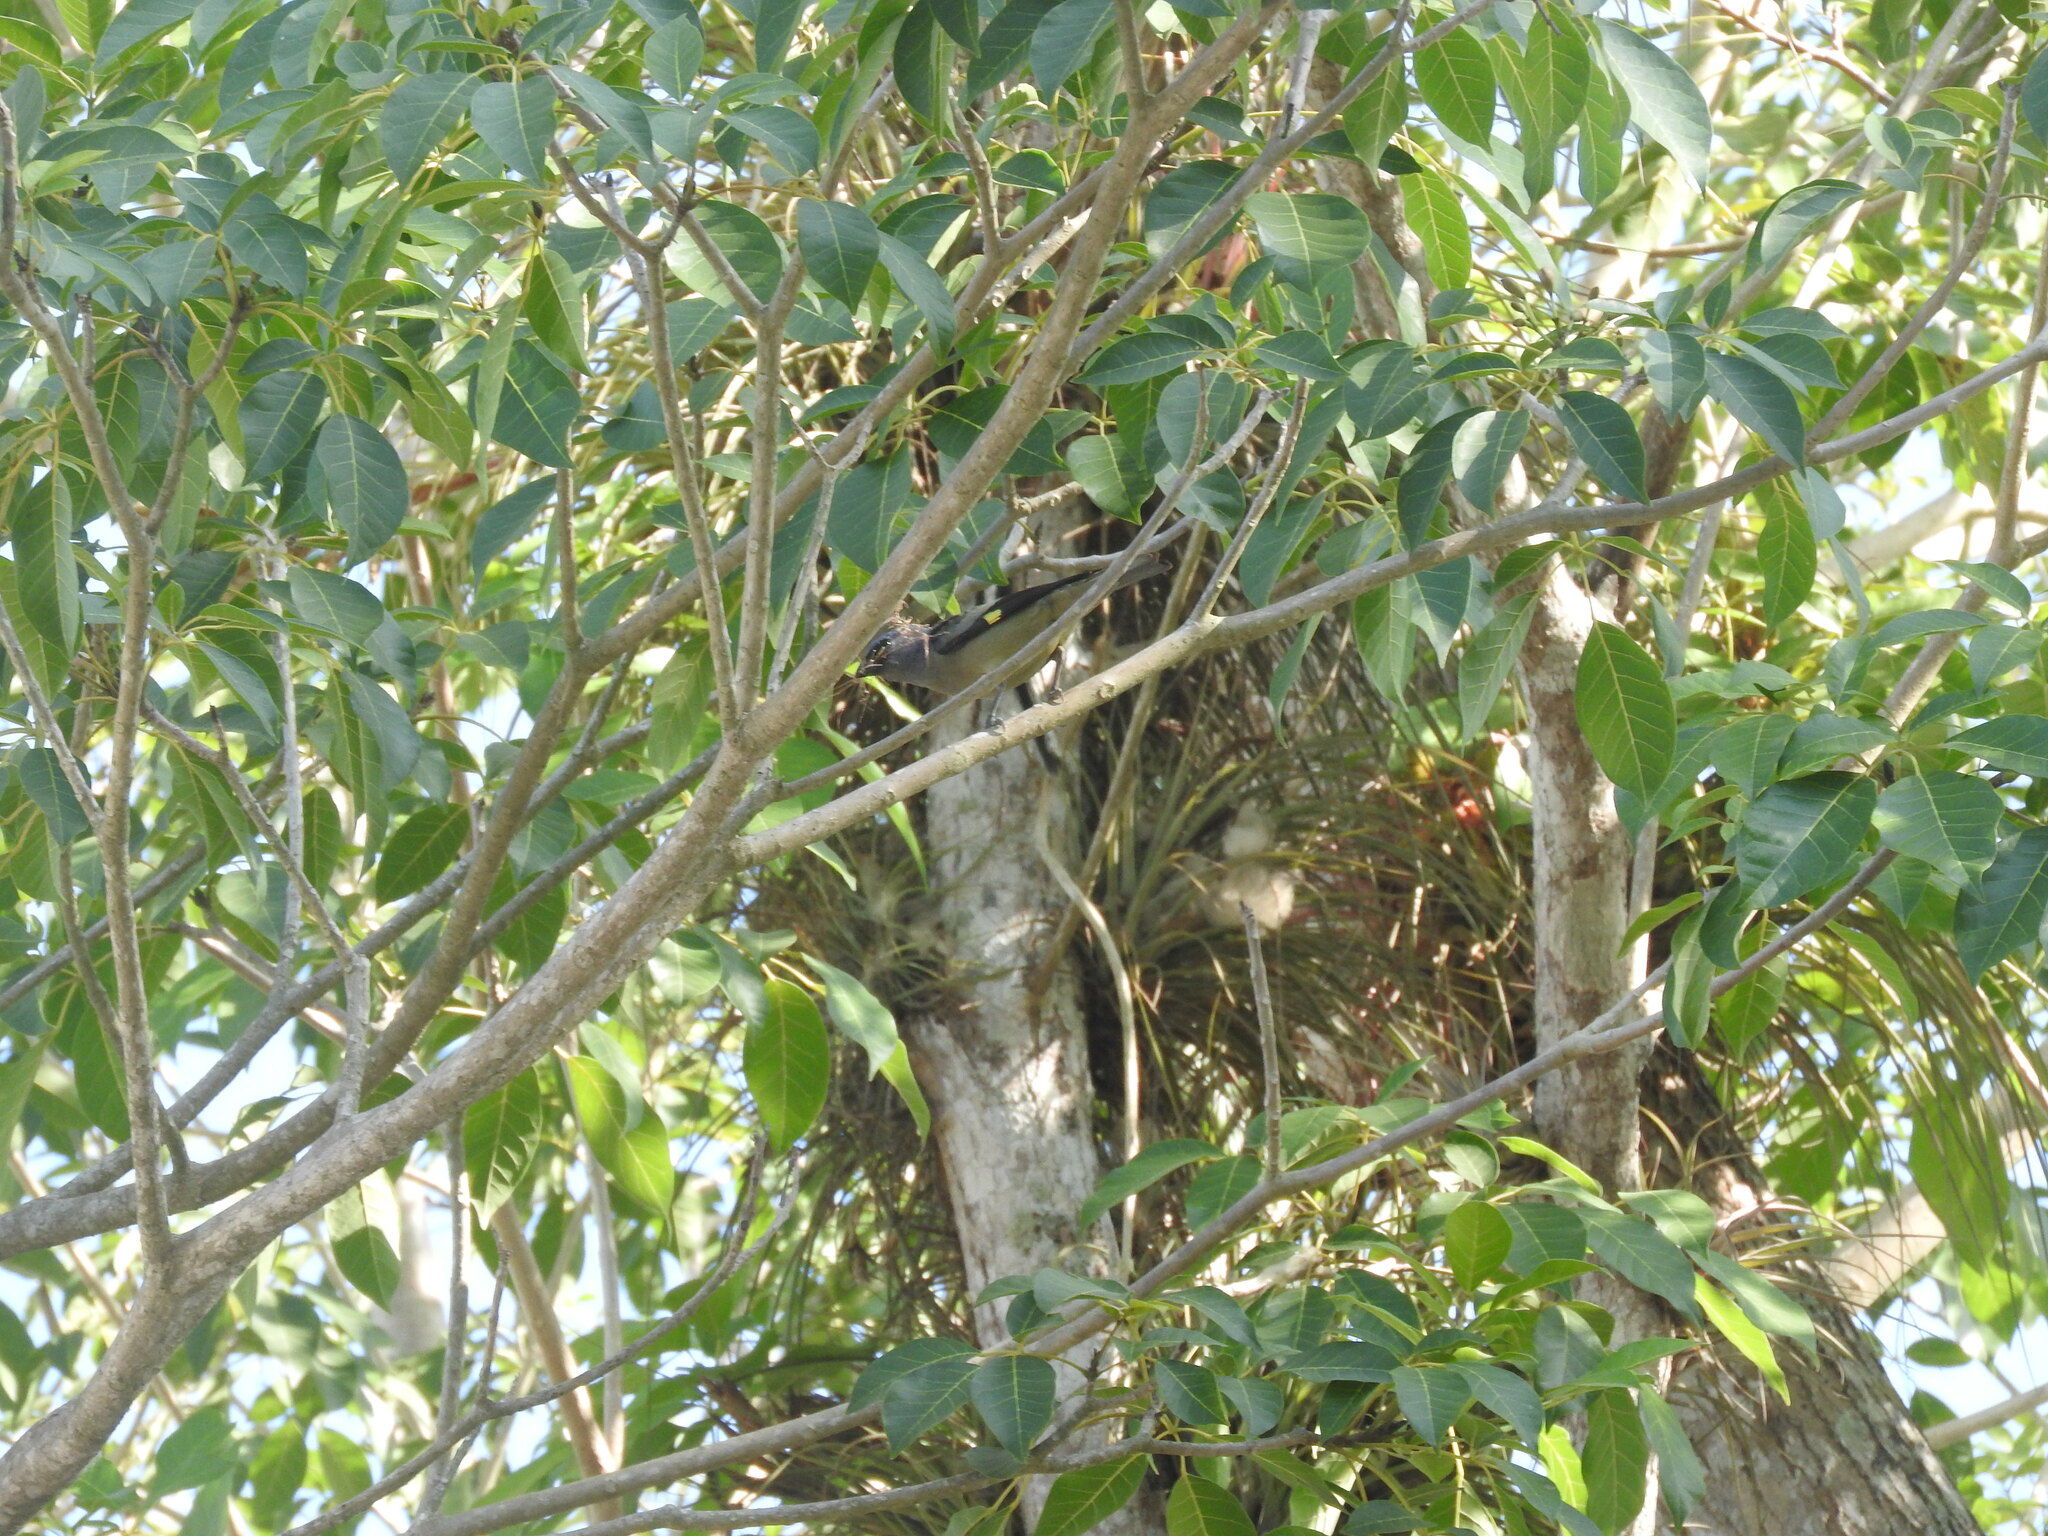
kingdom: Animalia
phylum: Chordata
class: Aves
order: Passeriformes
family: Thraupidae
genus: Thraupis
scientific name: Thraupis abbas
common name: Yellow-winged tanager
